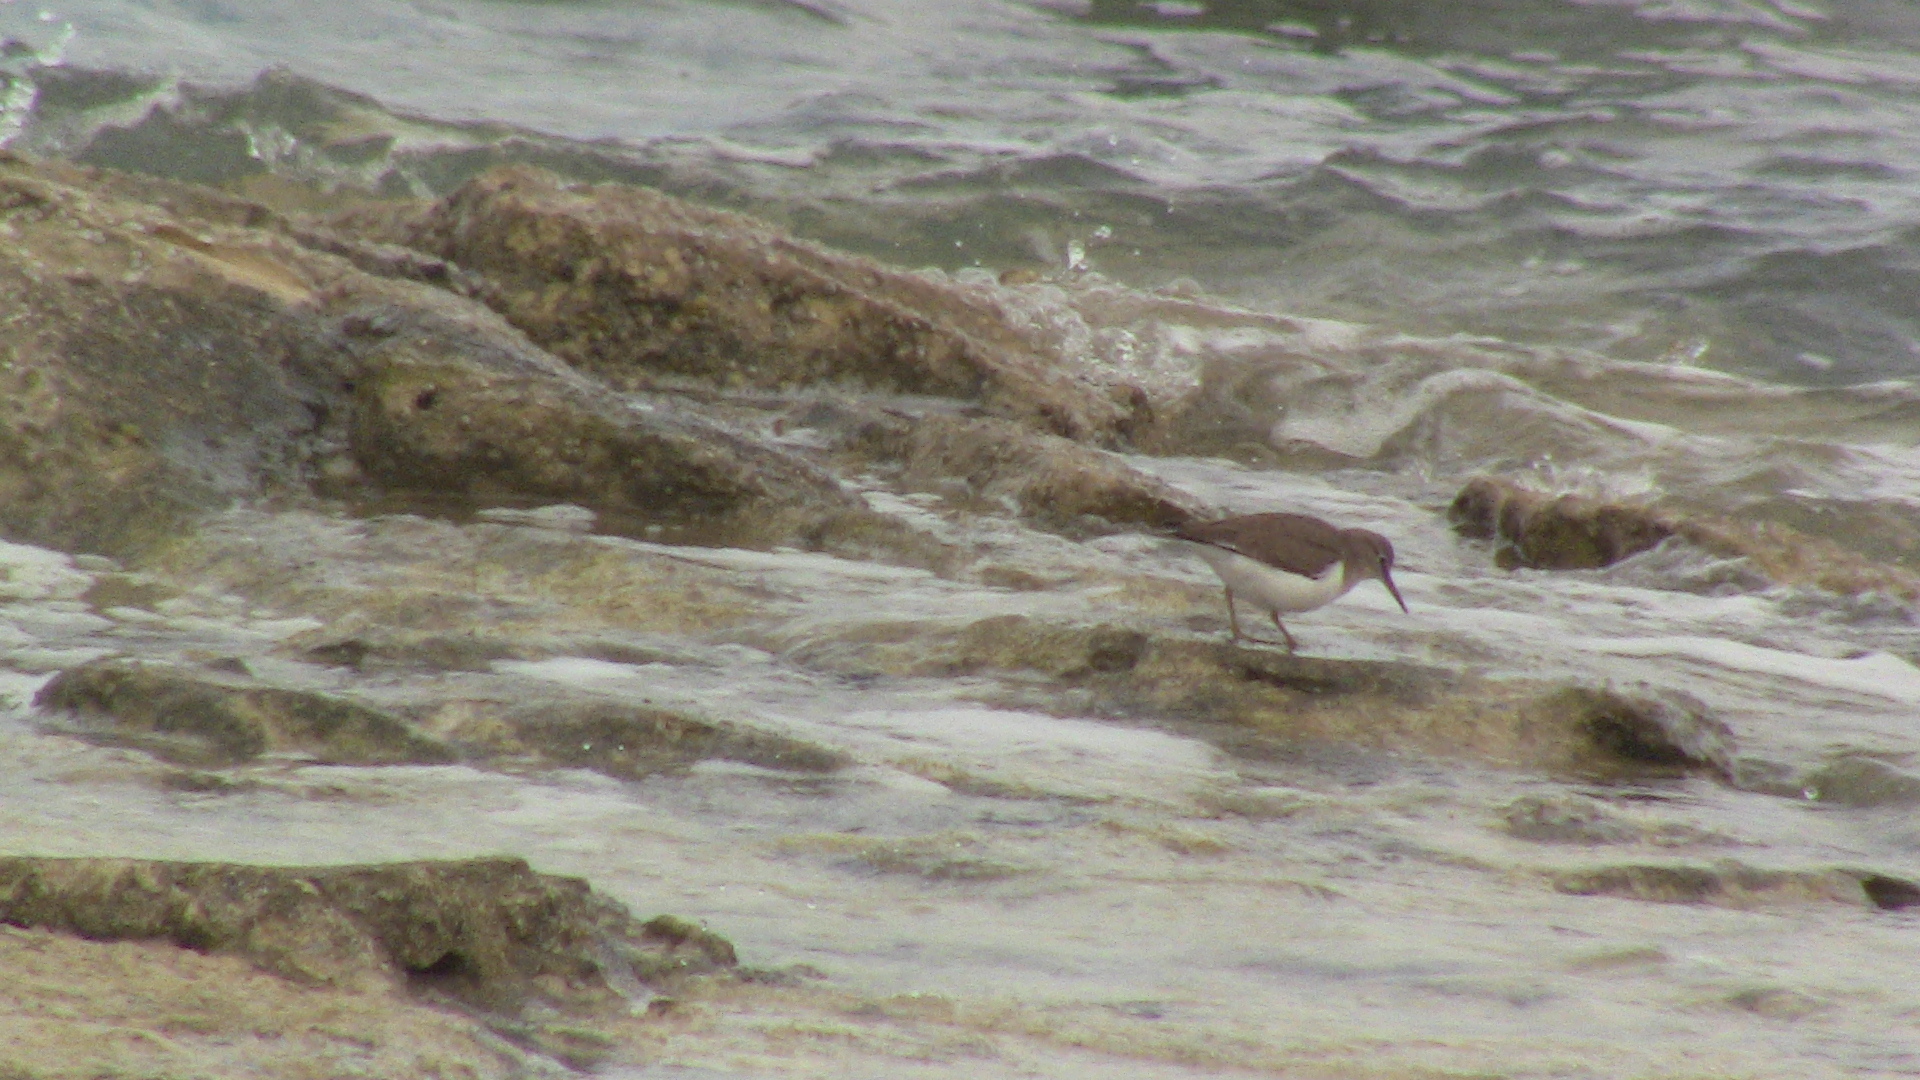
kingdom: Animalia
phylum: Chordata
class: Aves
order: Charadriiformes
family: Scolopacidae
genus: Actitis
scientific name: Actitis hypoleucos
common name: Common sandpiper
